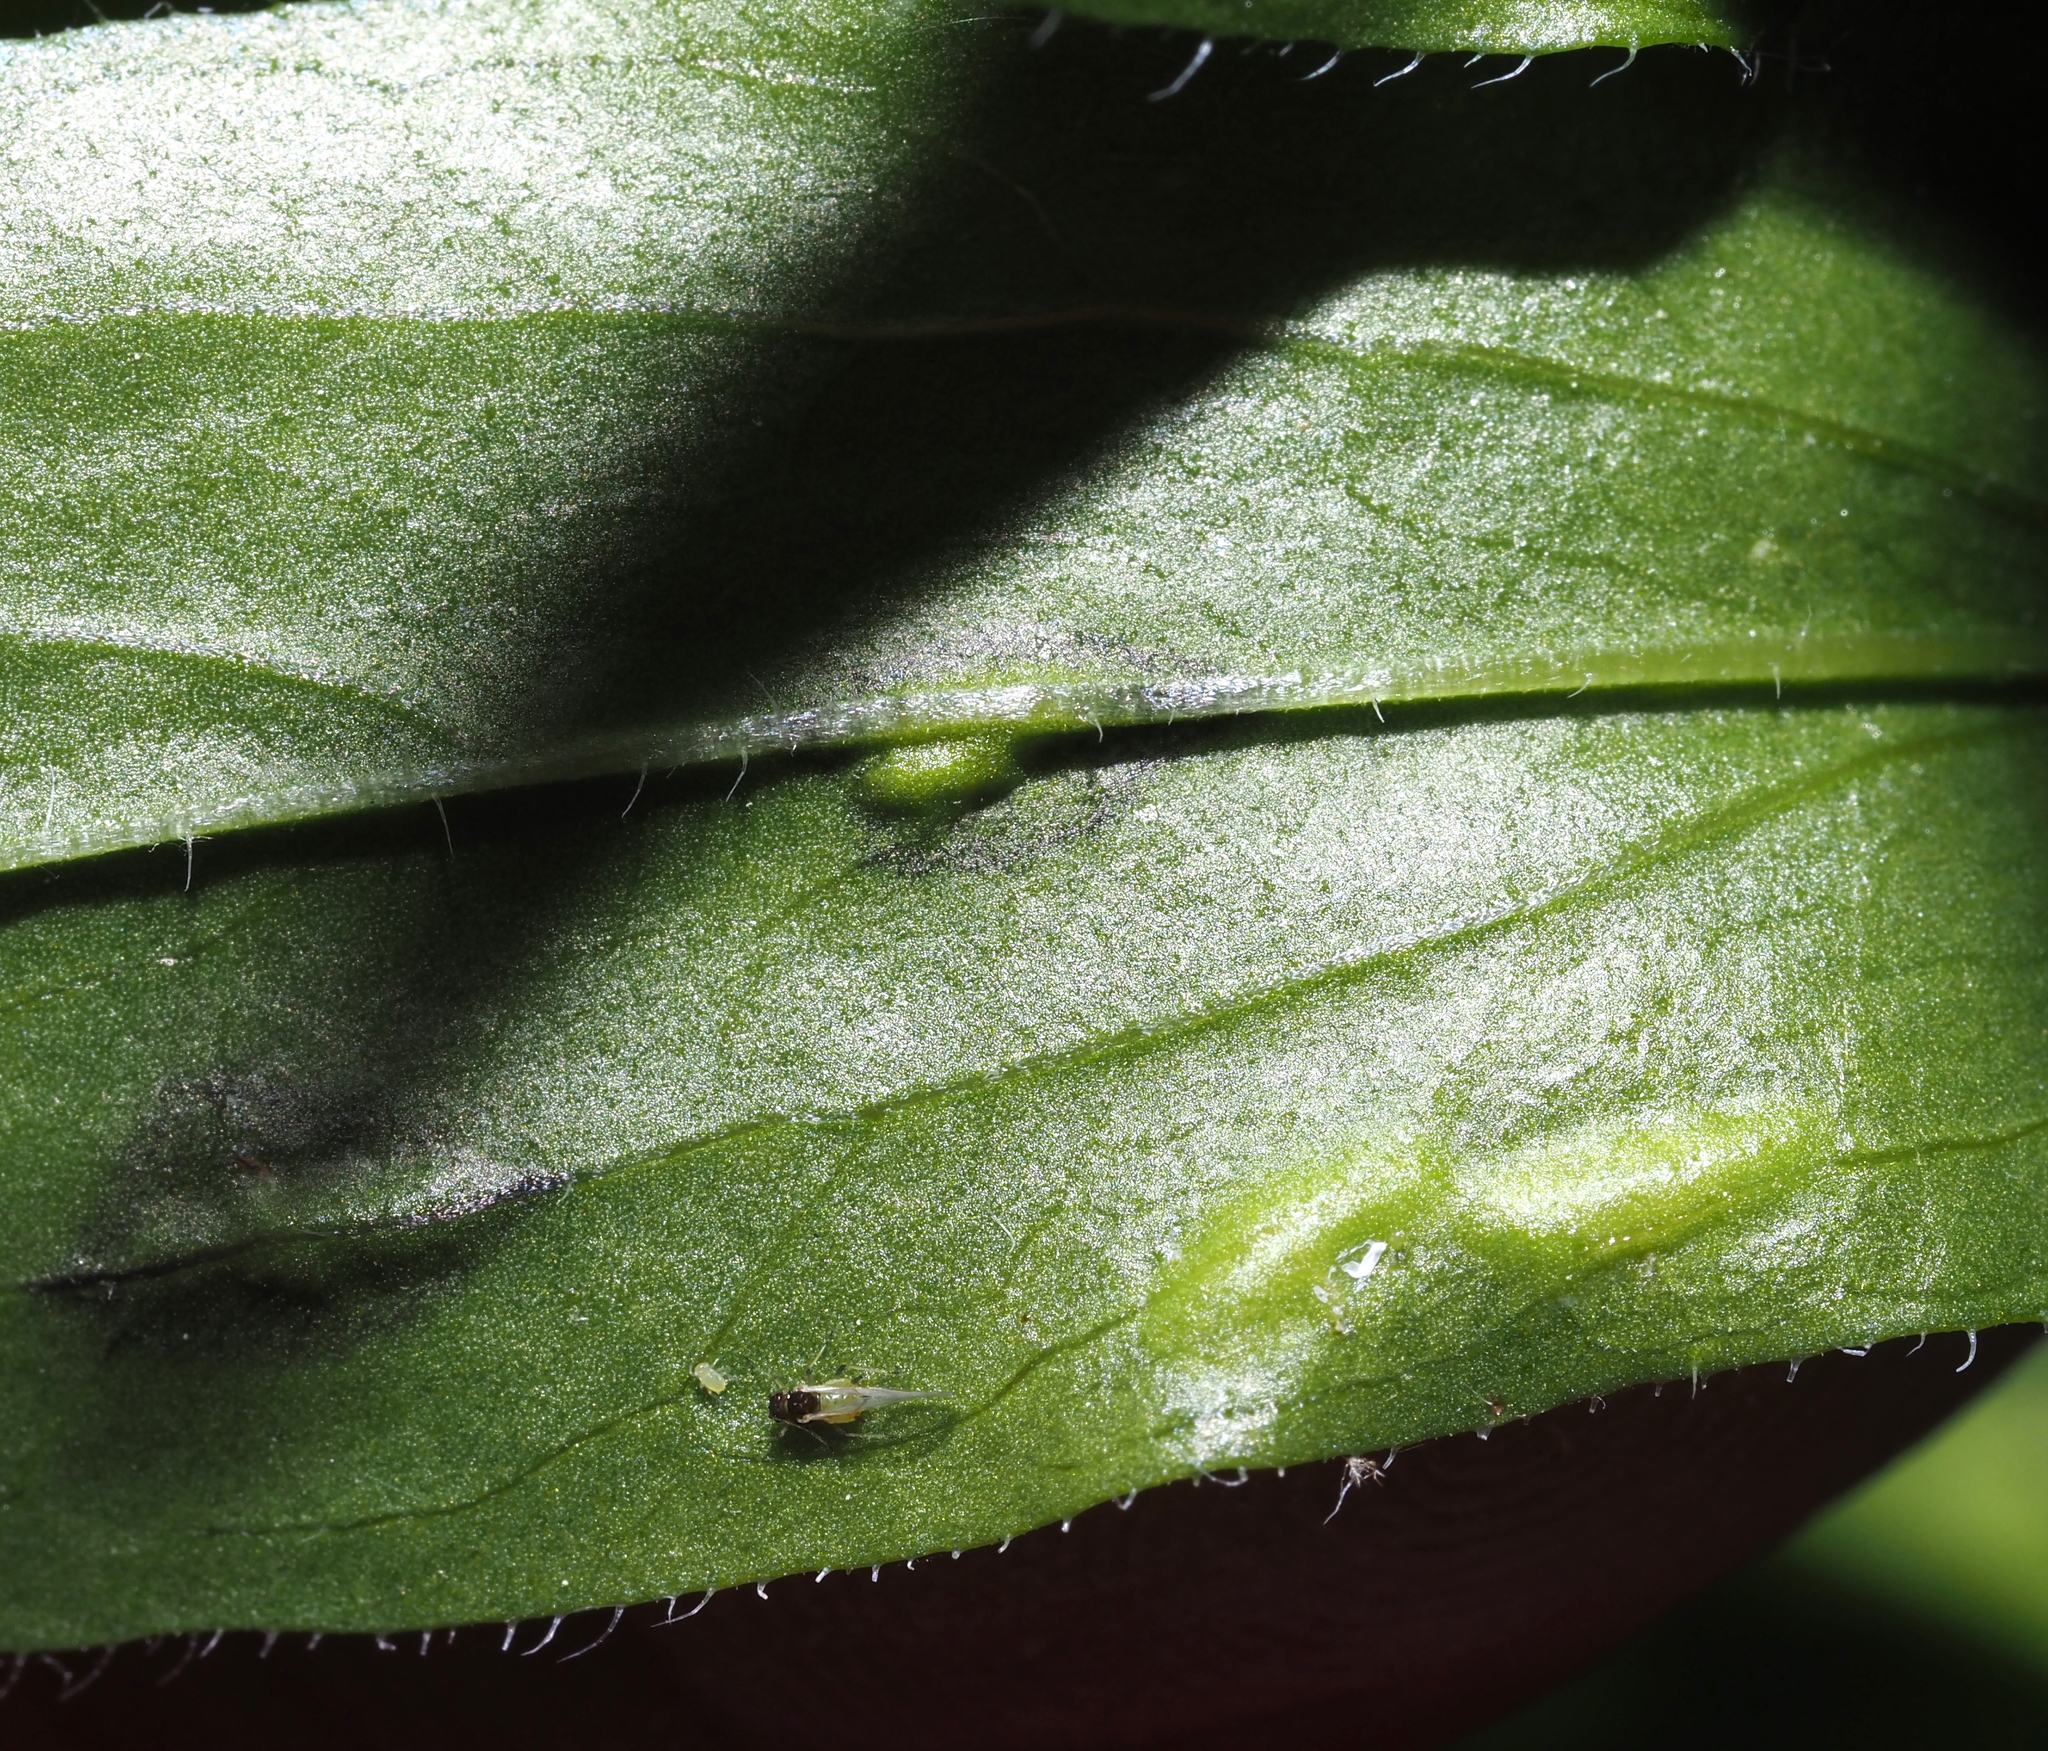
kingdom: Animalia
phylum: Arthropoda
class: Insecta
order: Diptera
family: Cecidomyiidae
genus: Asteromyia
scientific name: Asteromyia modesta
